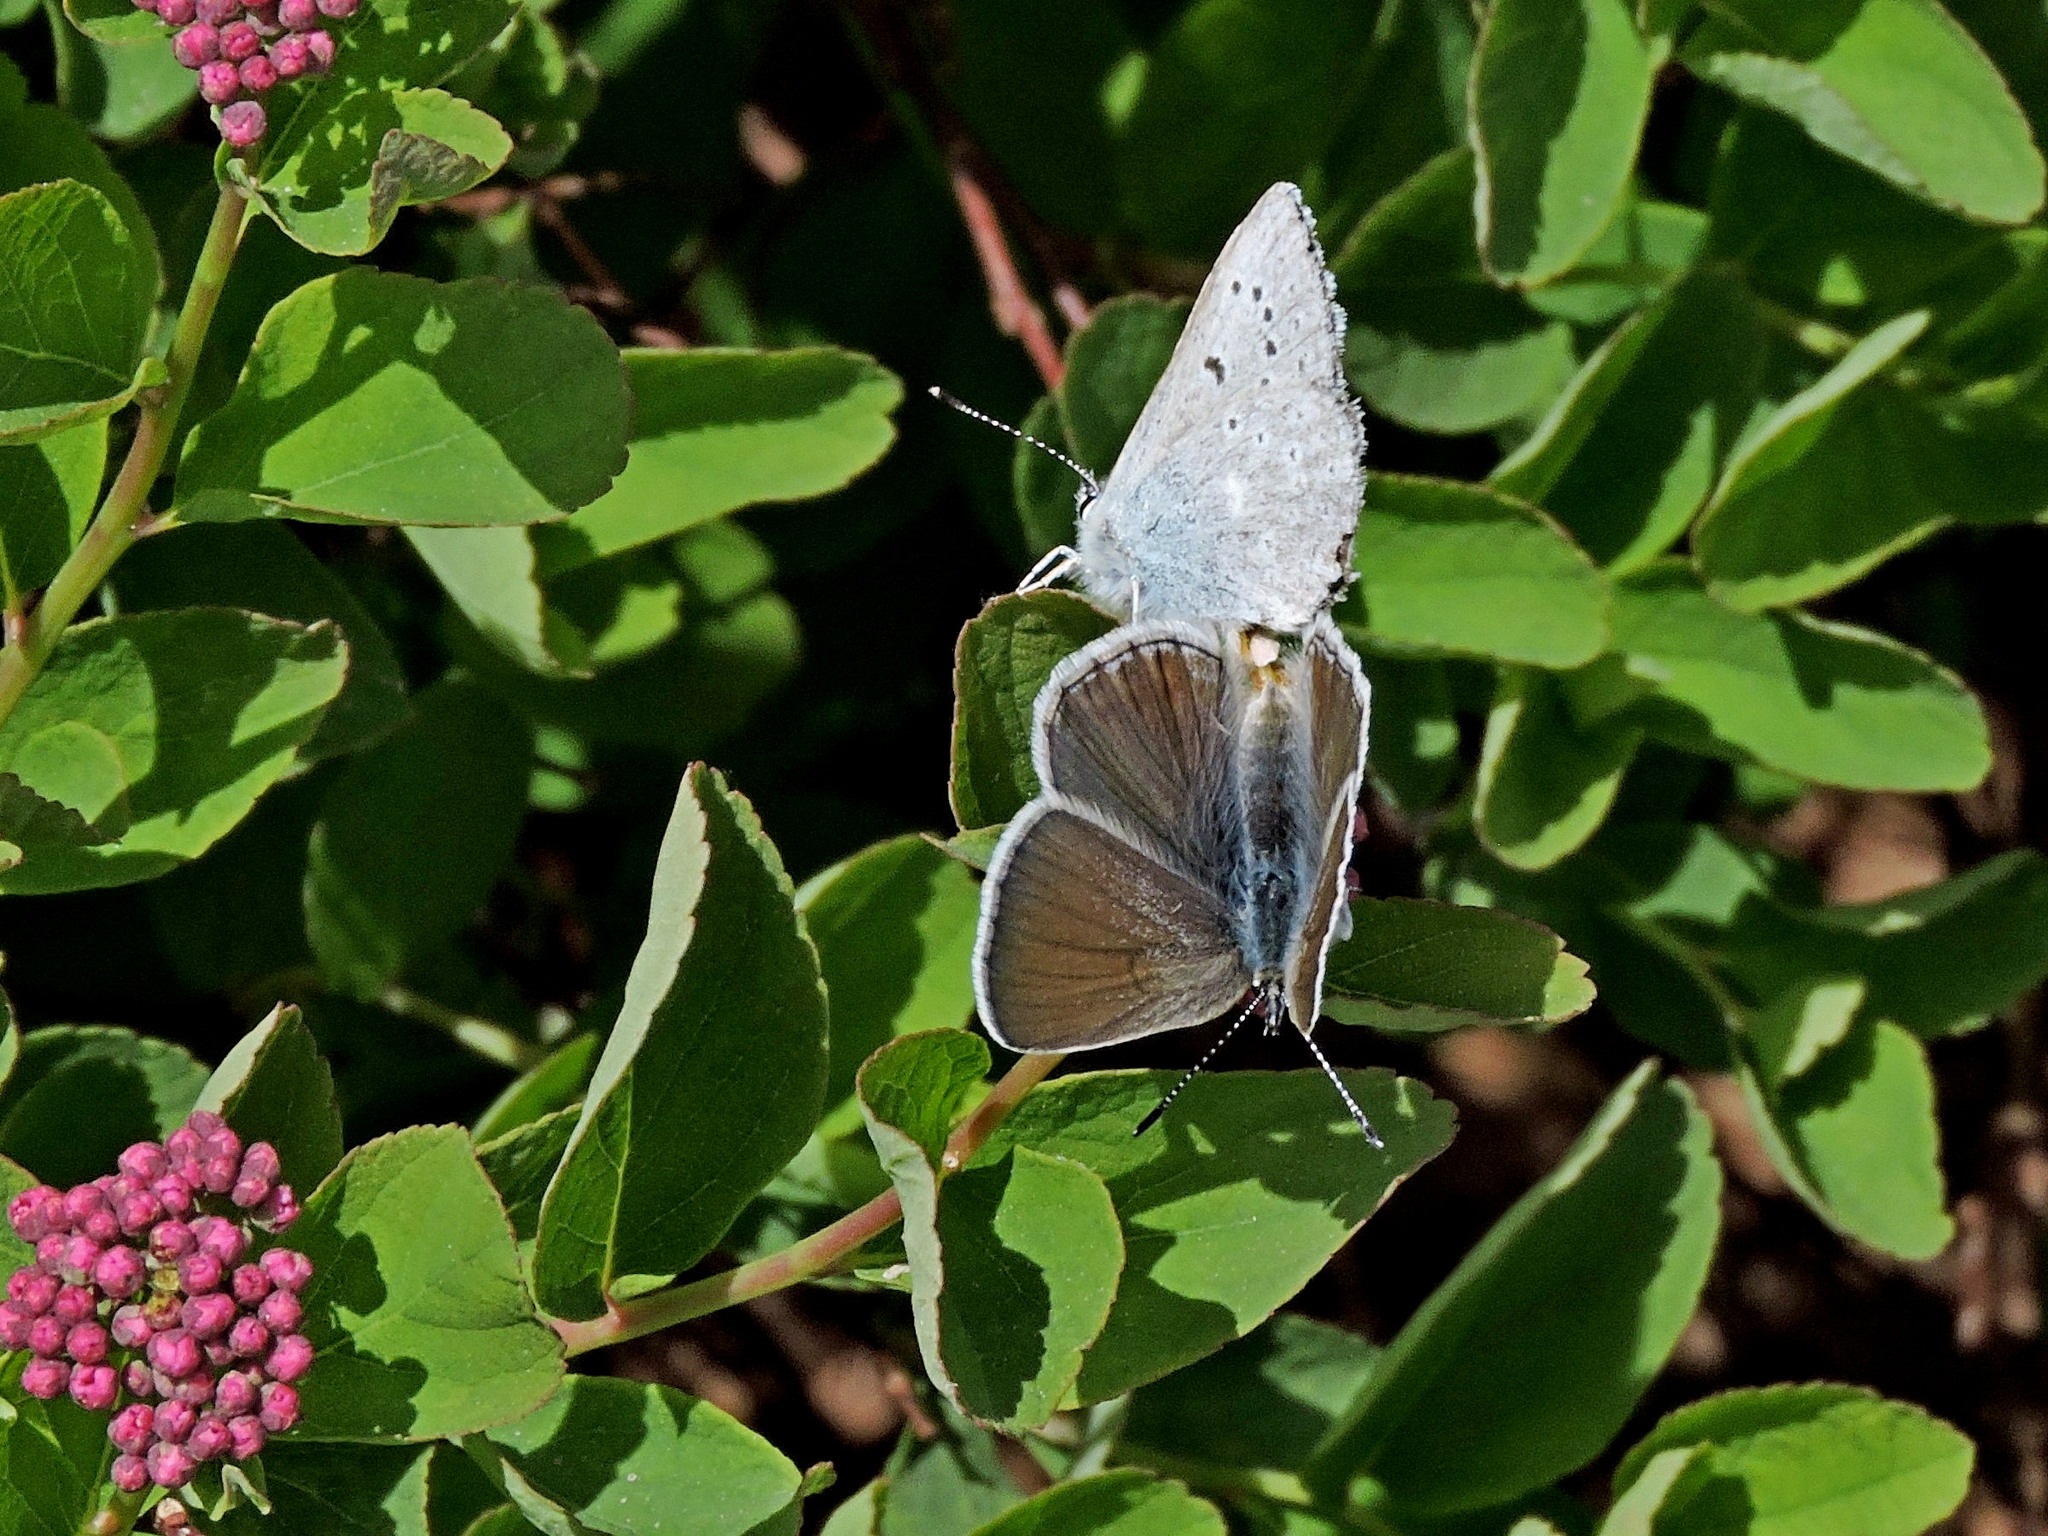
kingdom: Animalia
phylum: Arthropoda
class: Insecta
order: Lepidoptera
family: Lycaenidae
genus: Icaricia
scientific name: Icaricia icarioides
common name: Boisduval's blue
